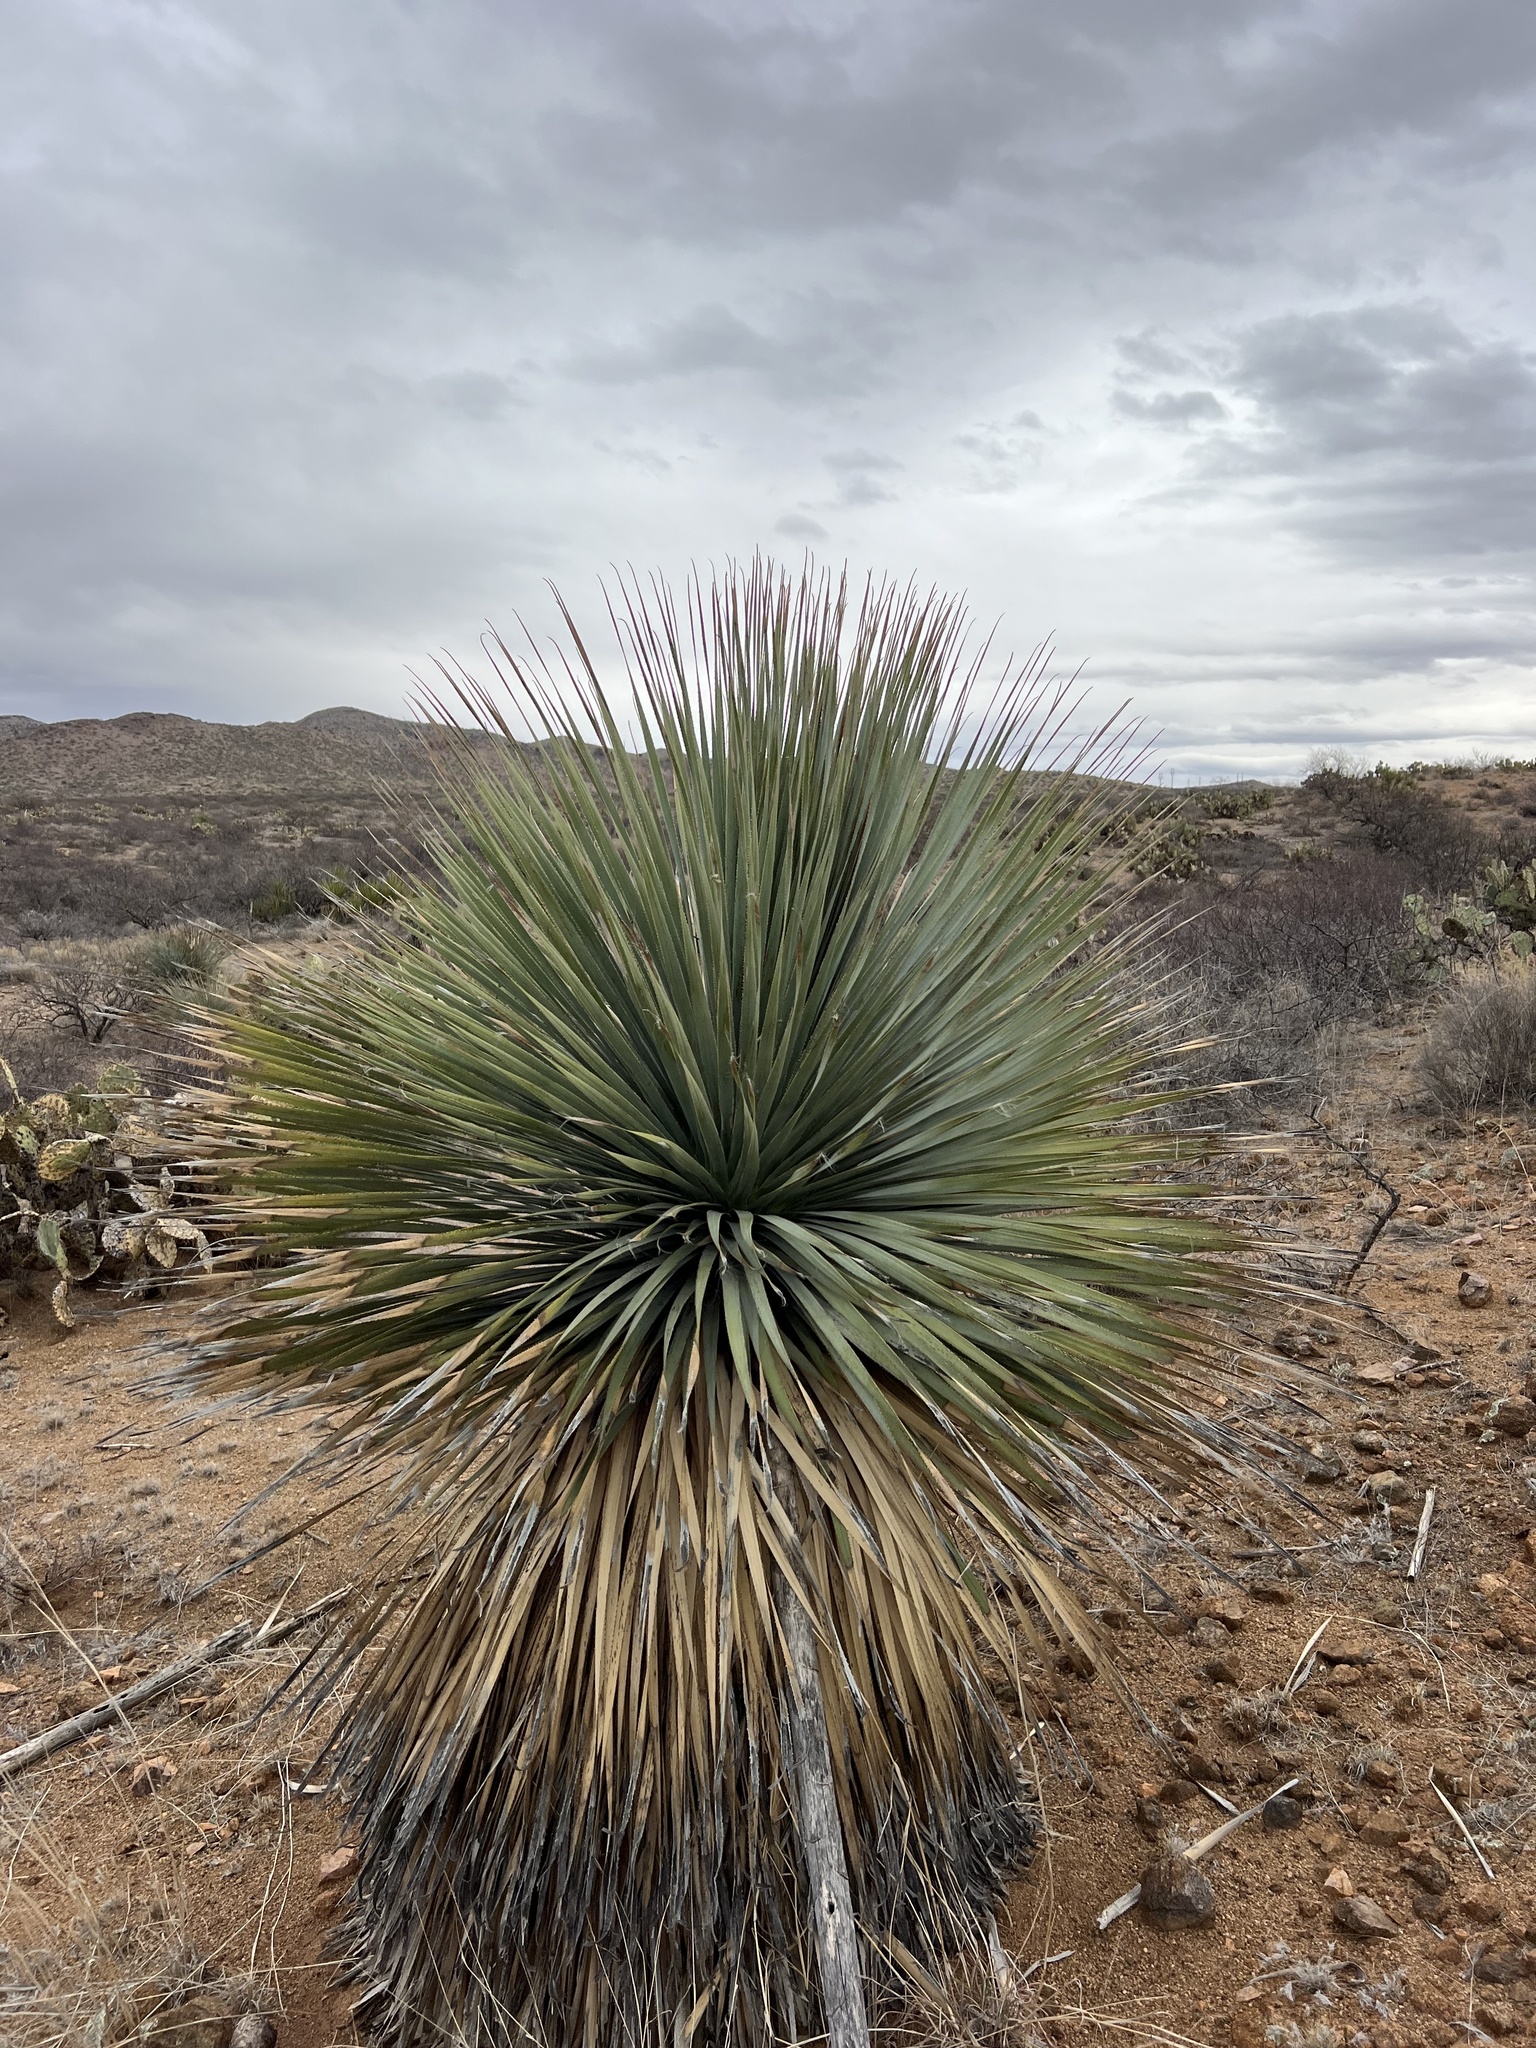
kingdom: Plantae
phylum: Tracheophyta
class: Liliopsida
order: Asparagales
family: Asparagaceae
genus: Dasylirion
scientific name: Dasylirion wheeleri
